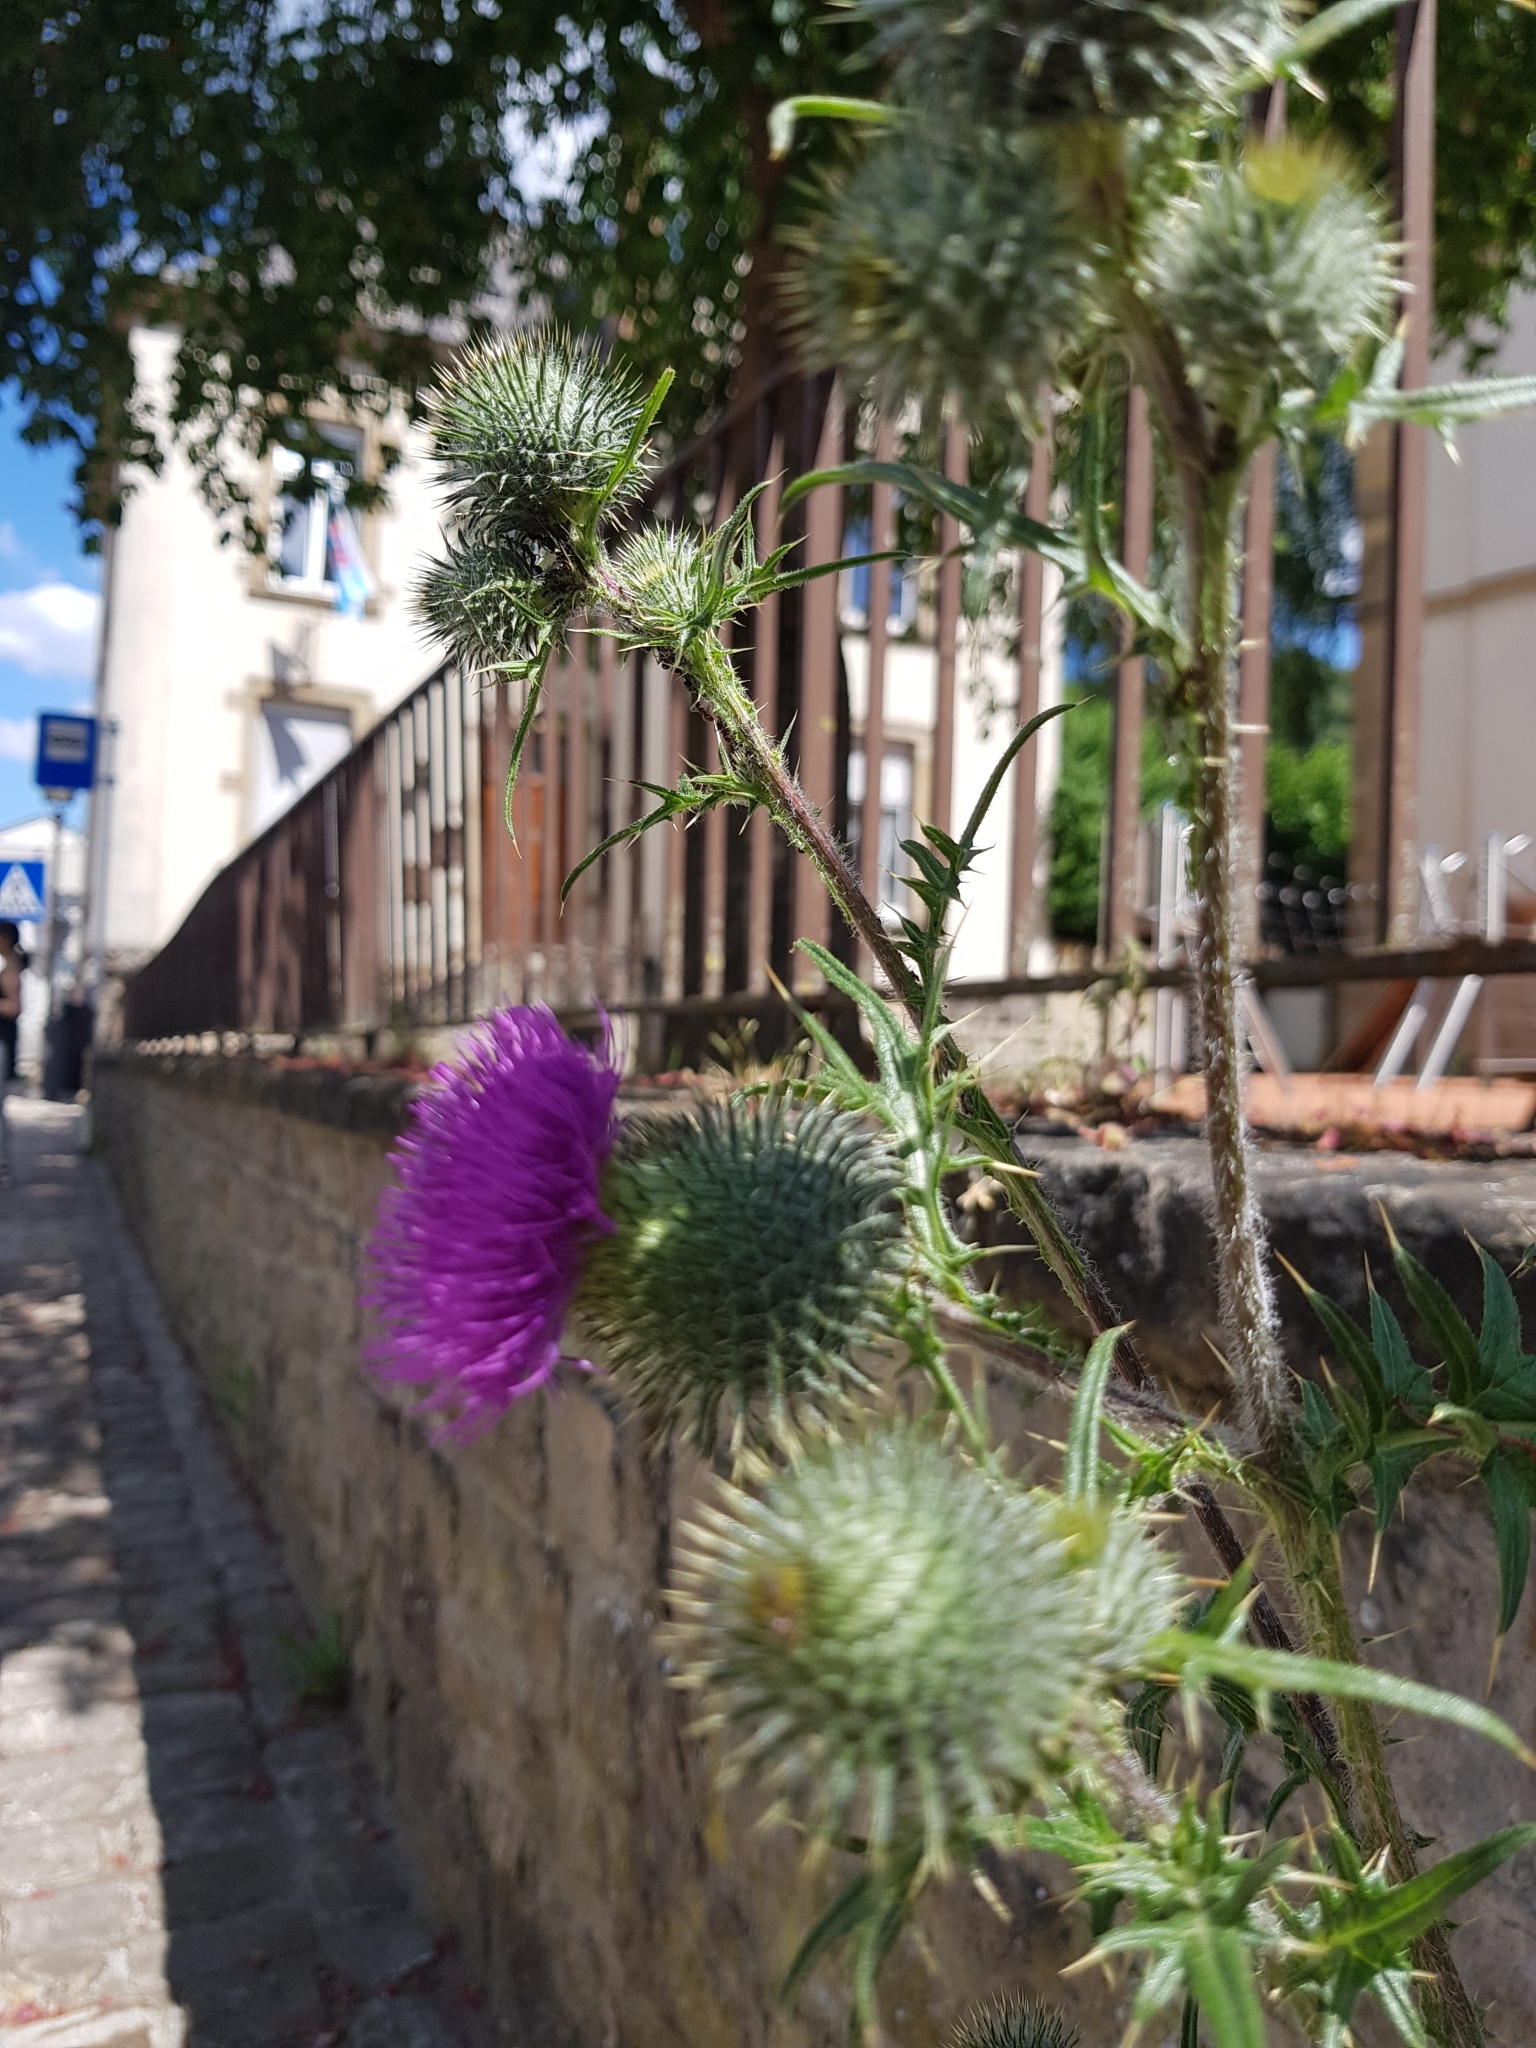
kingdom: Plantae
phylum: Tracheophyta
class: Magnoliopsida
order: Asterales
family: Asteraceae
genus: Cirsium
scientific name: Cirsium vulgare
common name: Bull thistle
